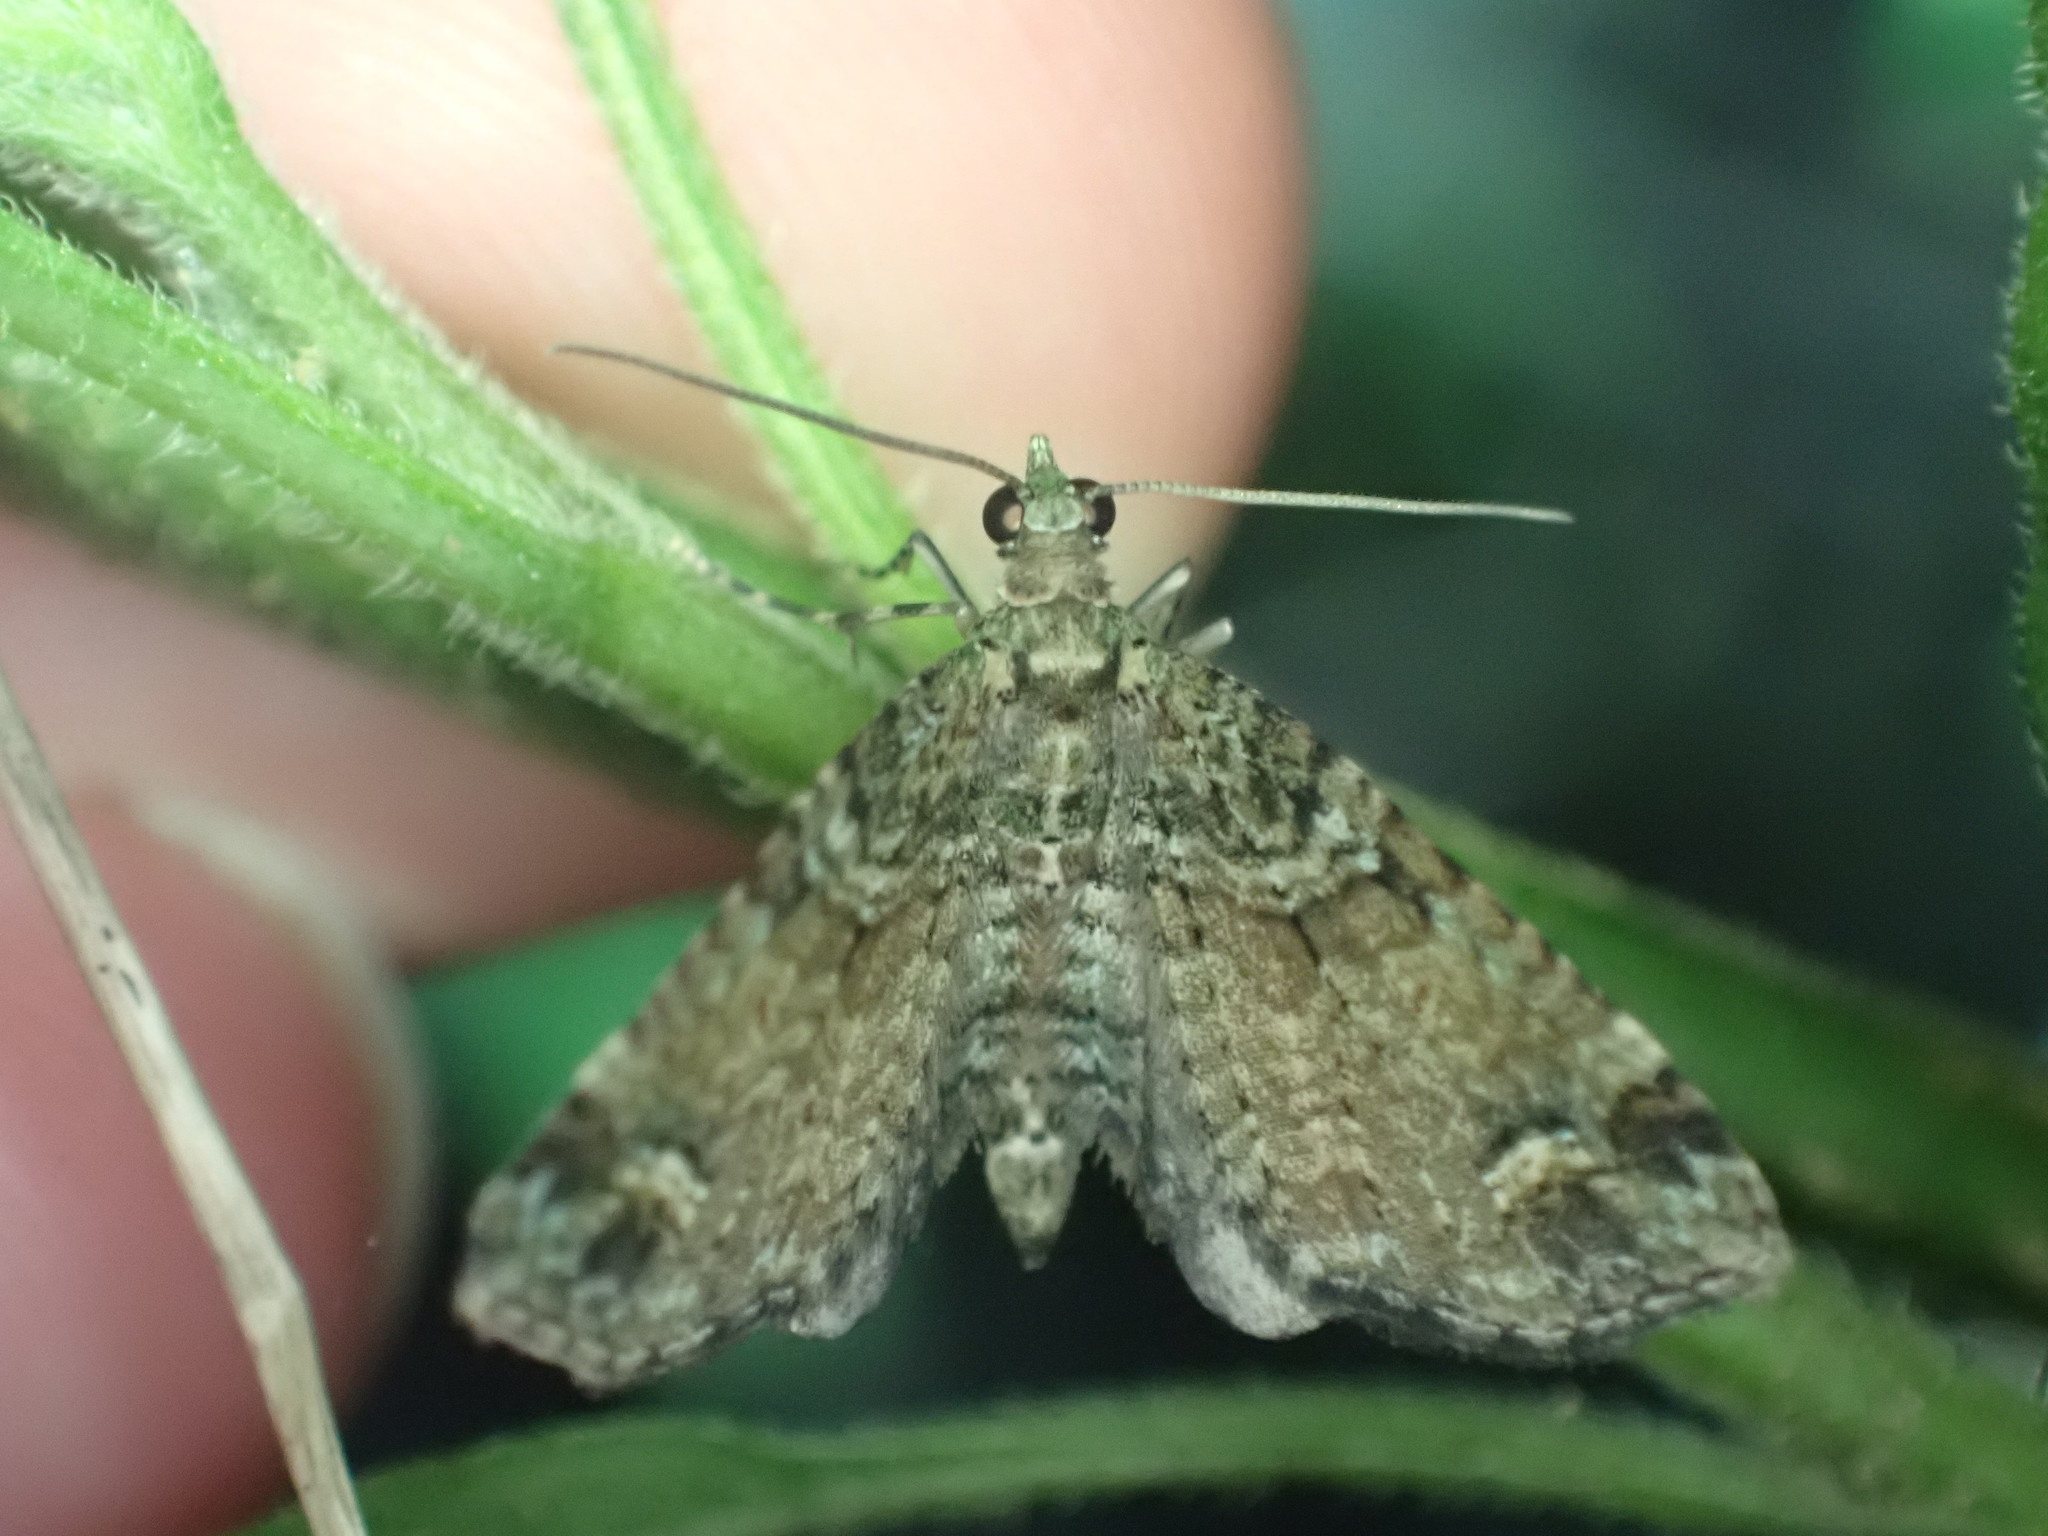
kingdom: Animalia
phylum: Arthropoda
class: Insecta
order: Lepidoptera
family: Geometridae
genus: Idaea
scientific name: Idaea mutanda
